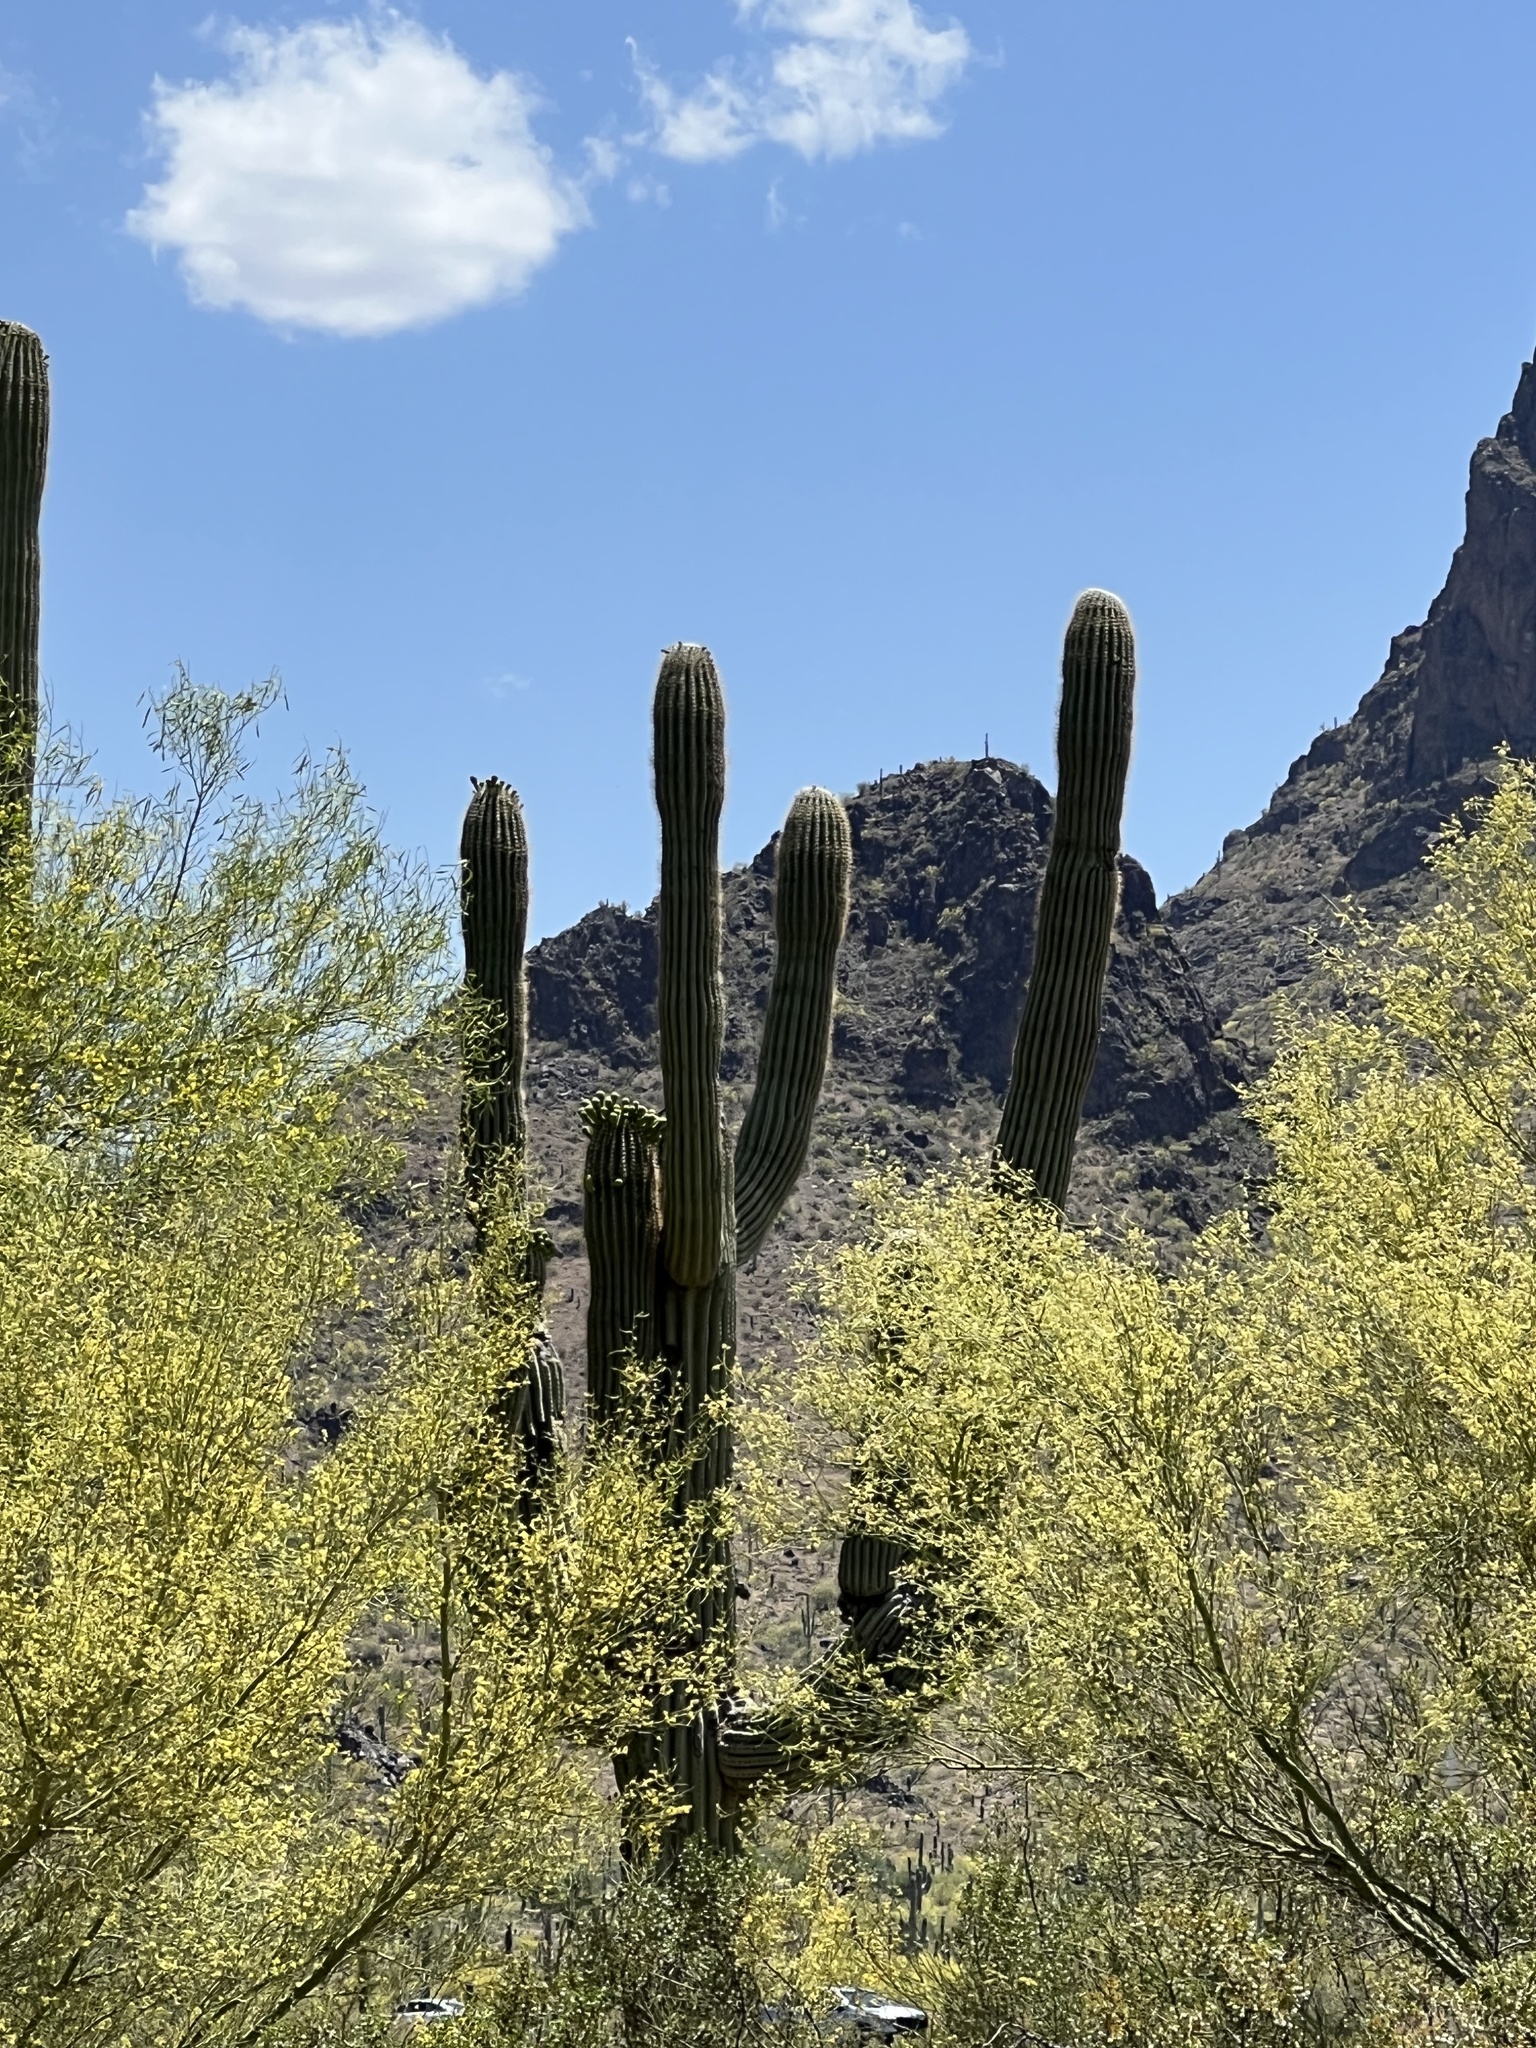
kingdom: Plantae
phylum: Tracheophyta
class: Magnoliopsida
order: Caryophyllales
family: Cactaceae
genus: Carnegiea
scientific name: Carnegiea gigantea
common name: Saguaro
